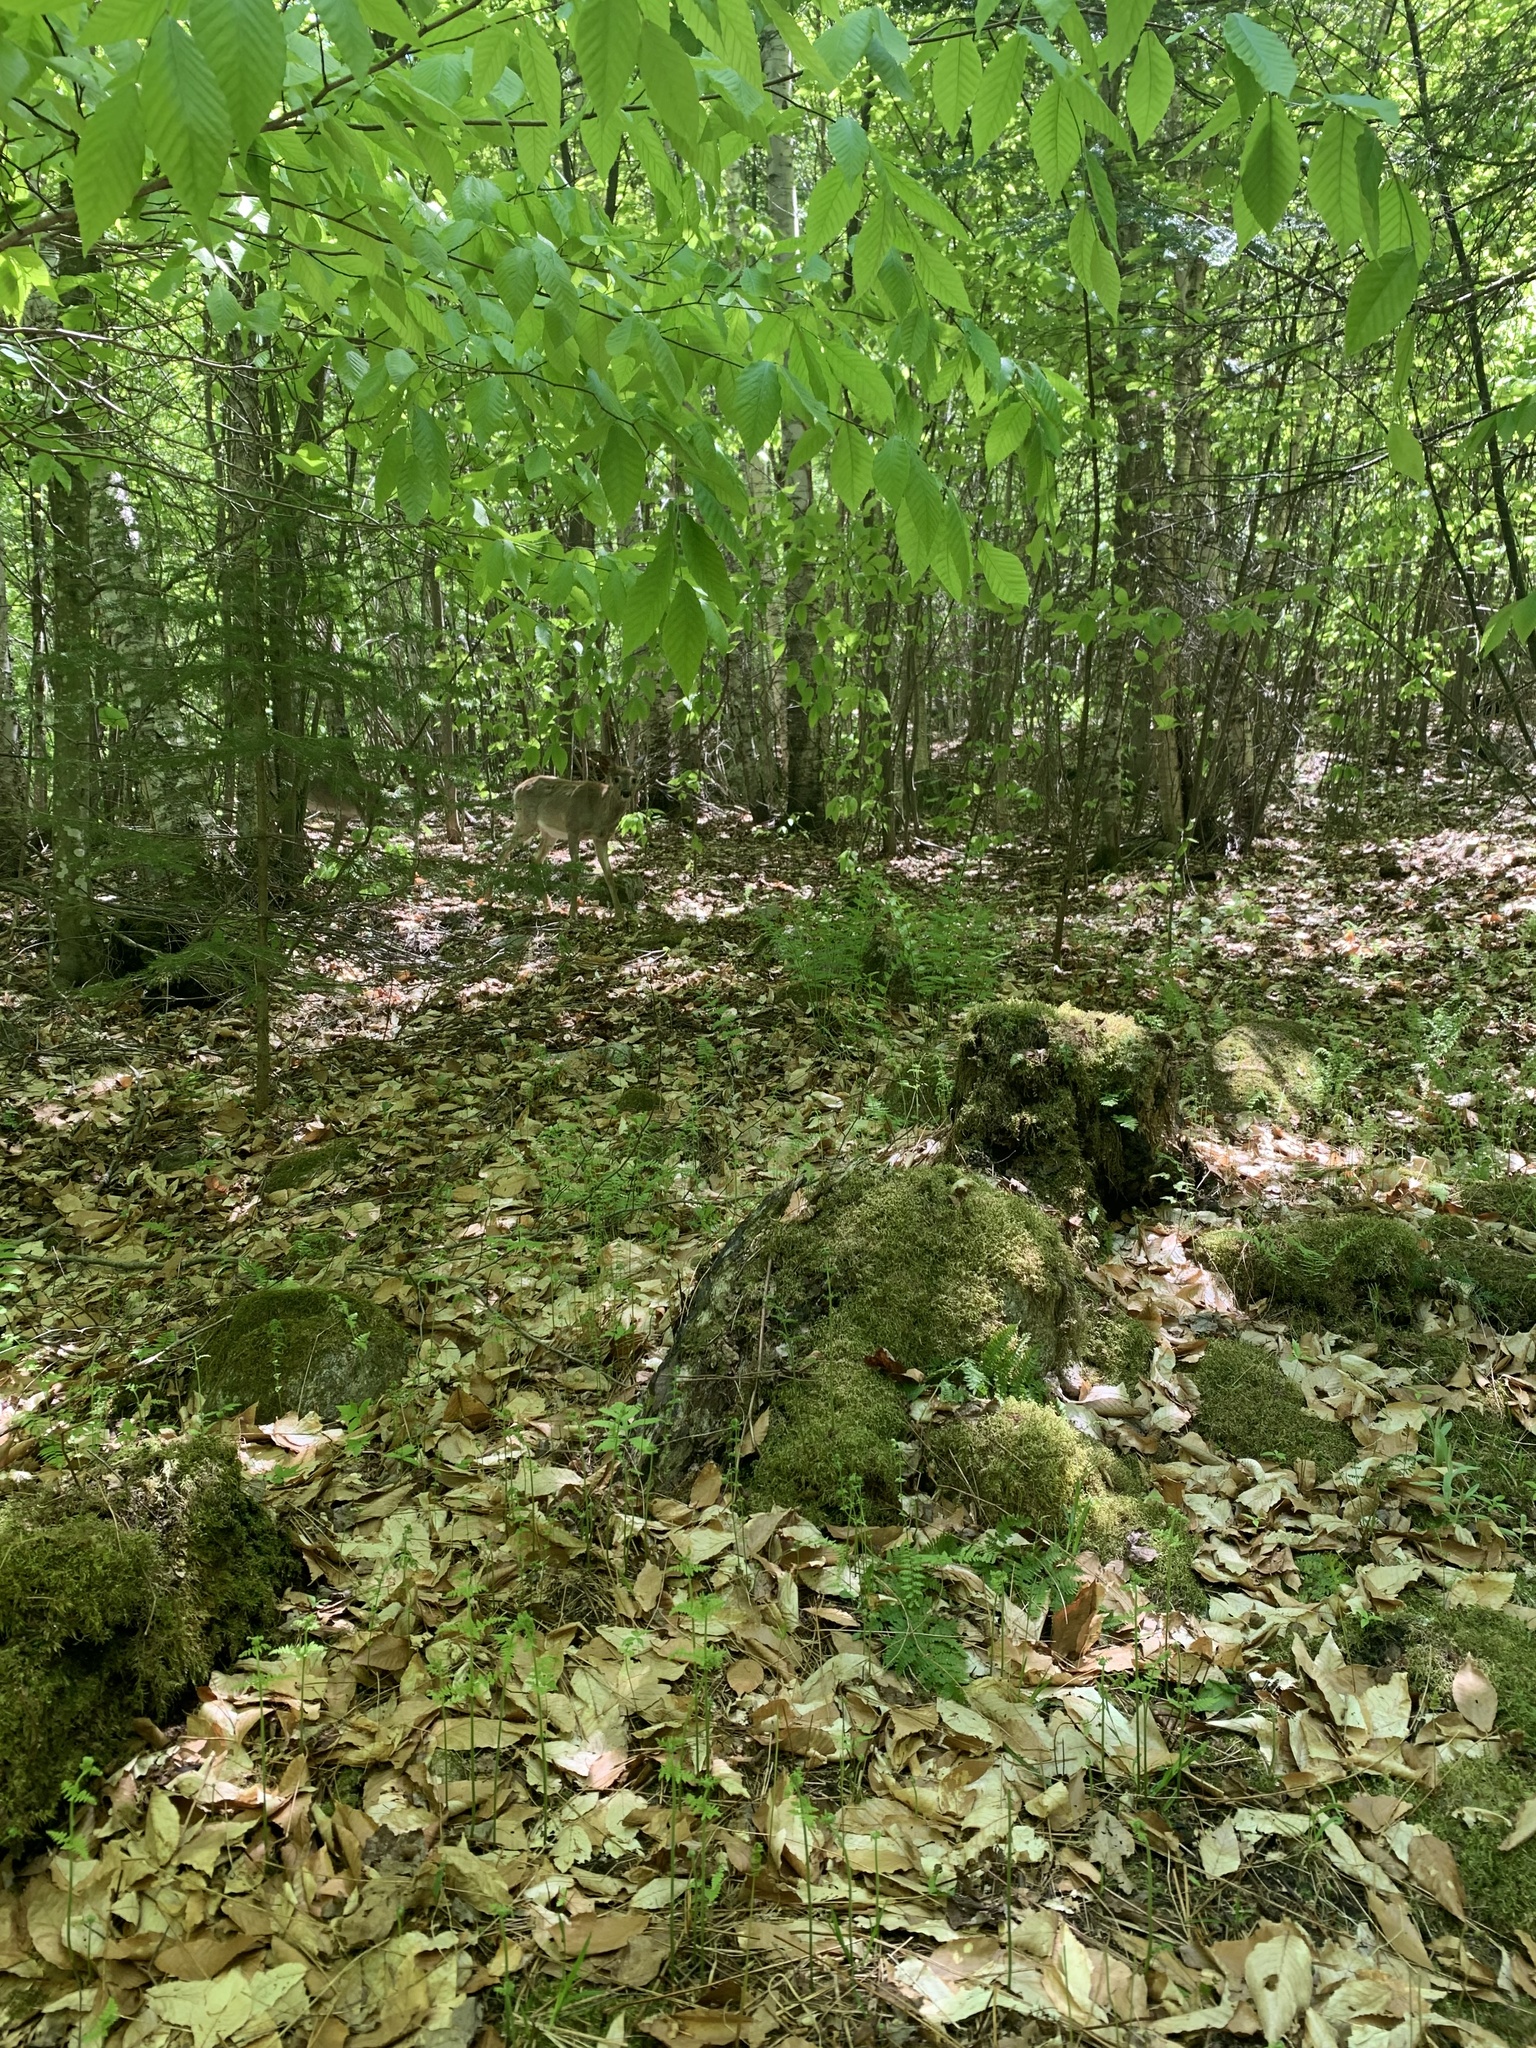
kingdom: Animalia
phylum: Chordata
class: Mammalia
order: Artiodactyla
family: Cervidae
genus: Odocoileus
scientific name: Odocoileus virginianus
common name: White-tailed deer
